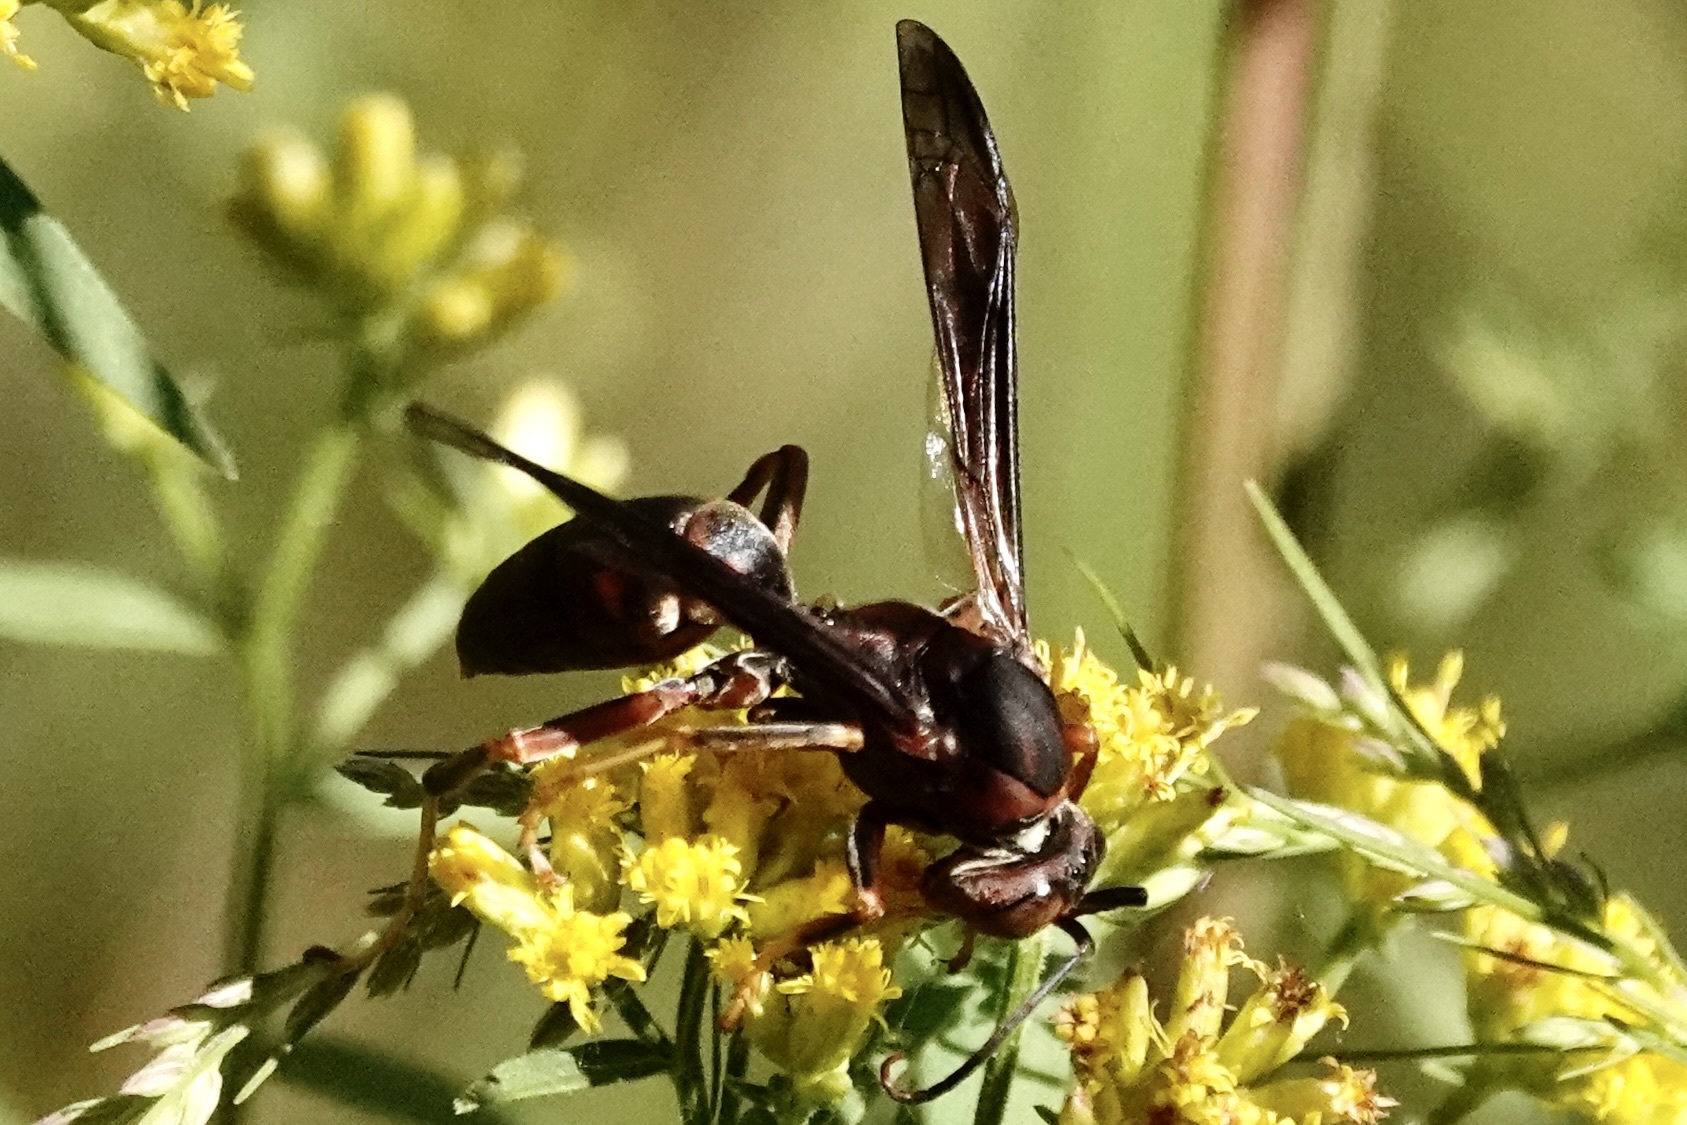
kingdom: Animalia
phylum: Arthropoda
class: Insecta
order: Hymenoptera
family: Eumenidae
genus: Polistes
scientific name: Polistes metricus
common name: Metric paper wasp
